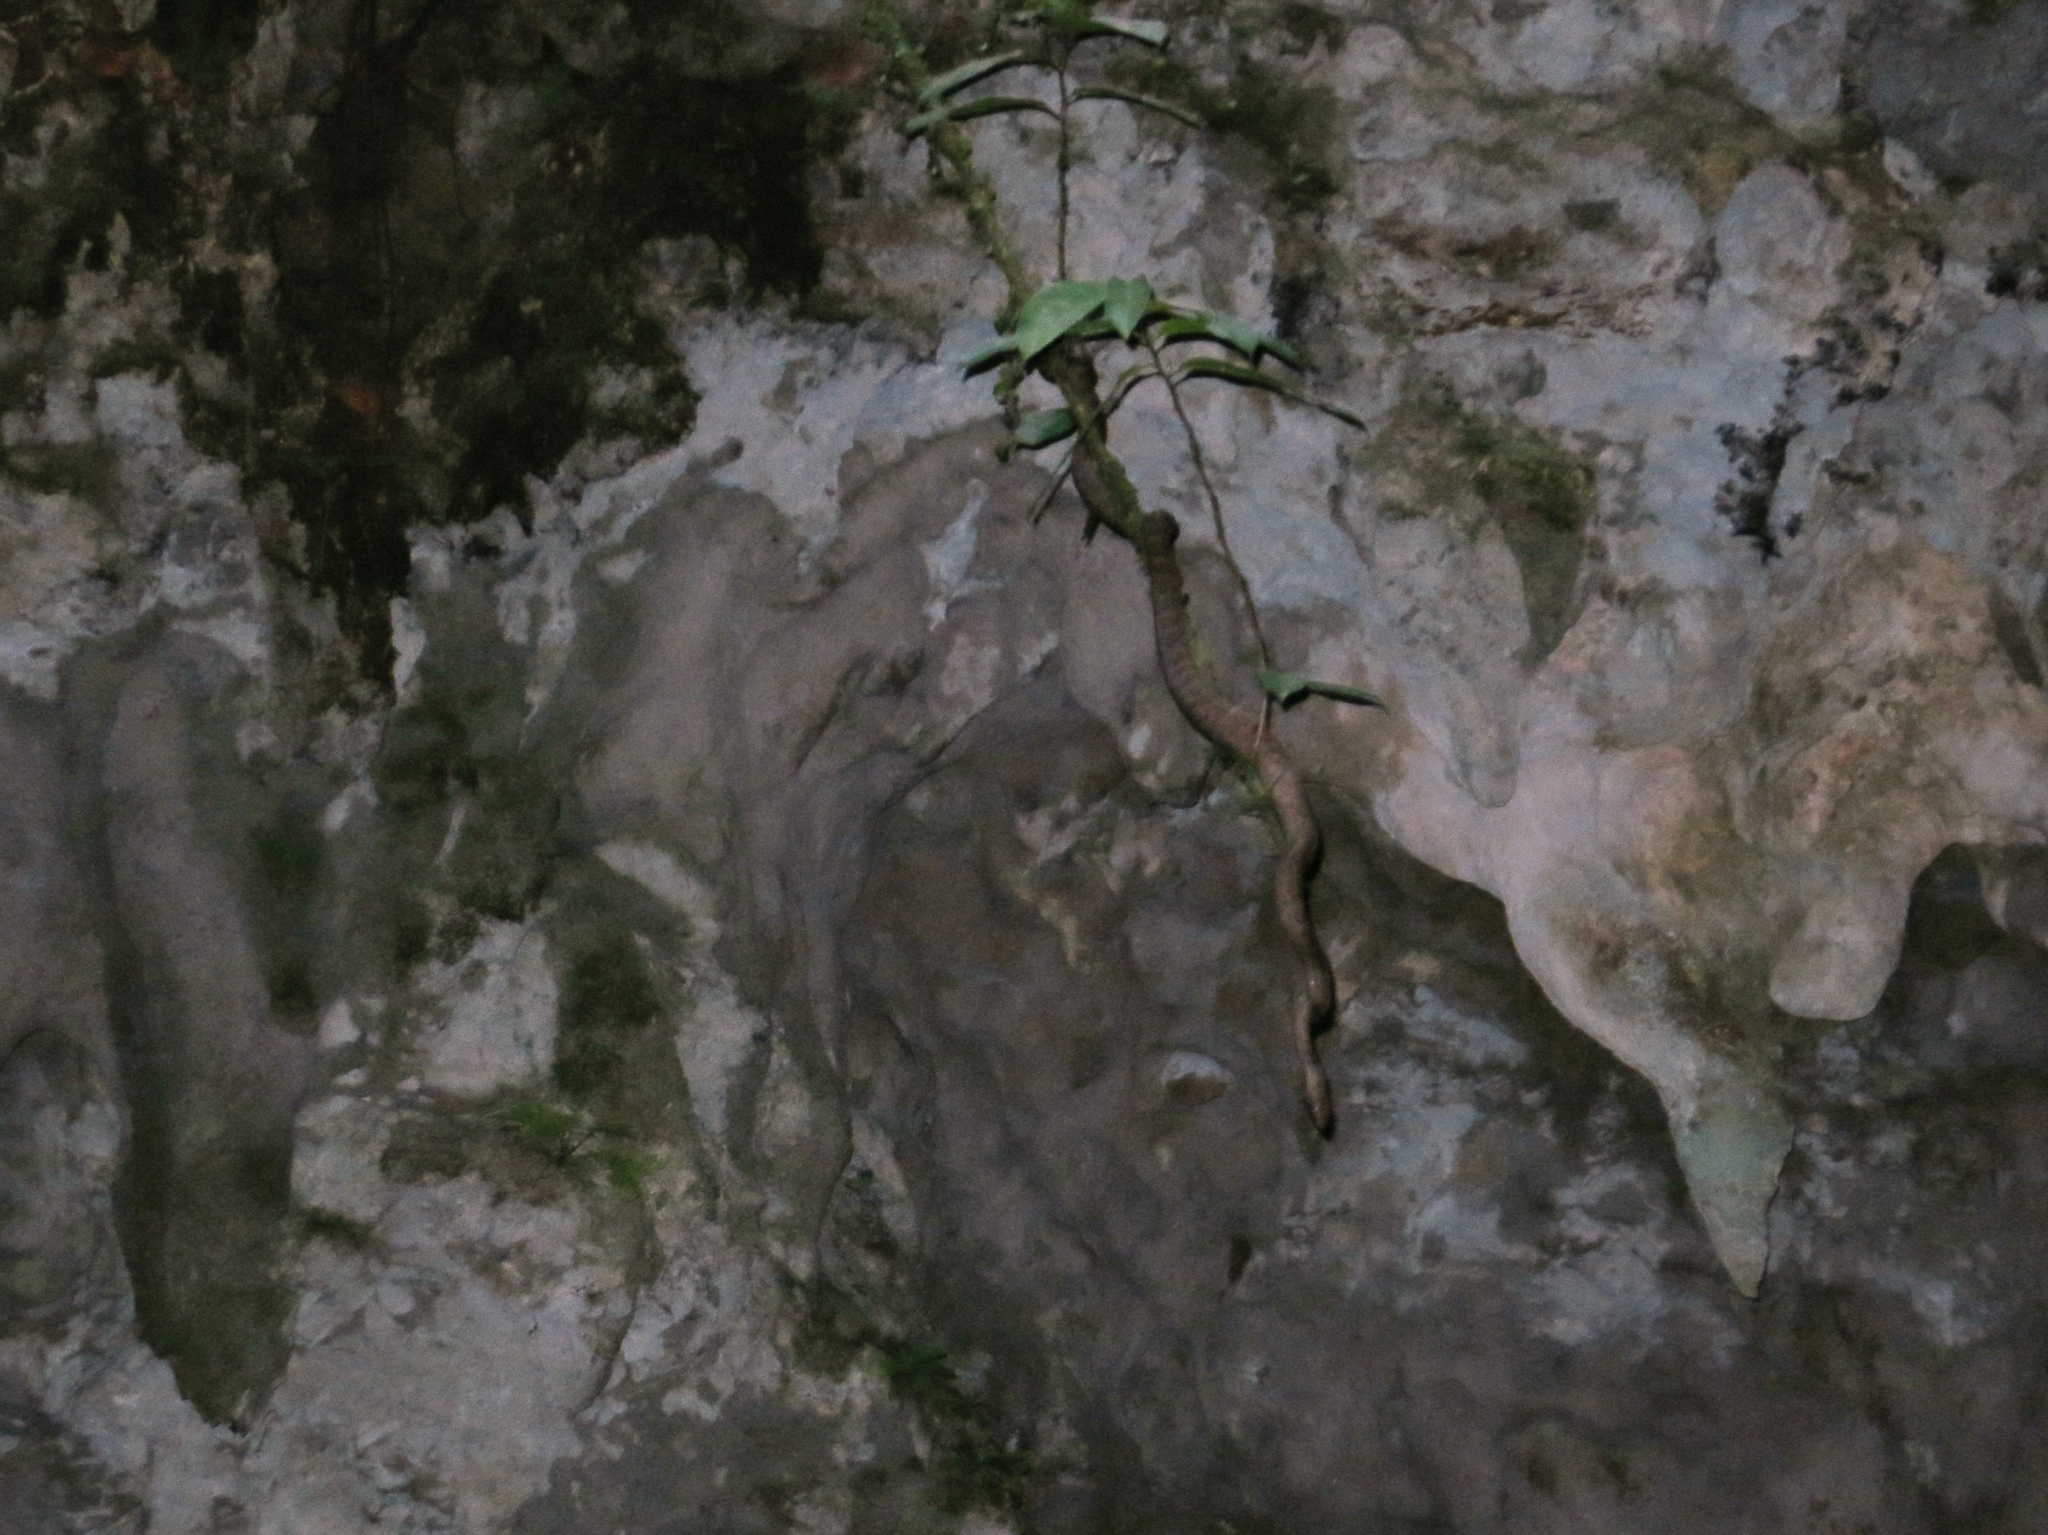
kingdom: Animalia
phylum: Chordata
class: Squamata
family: Boidae
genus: Chilabothrus
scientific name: Chilabothrus inornatus
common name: Puerto rican boa
